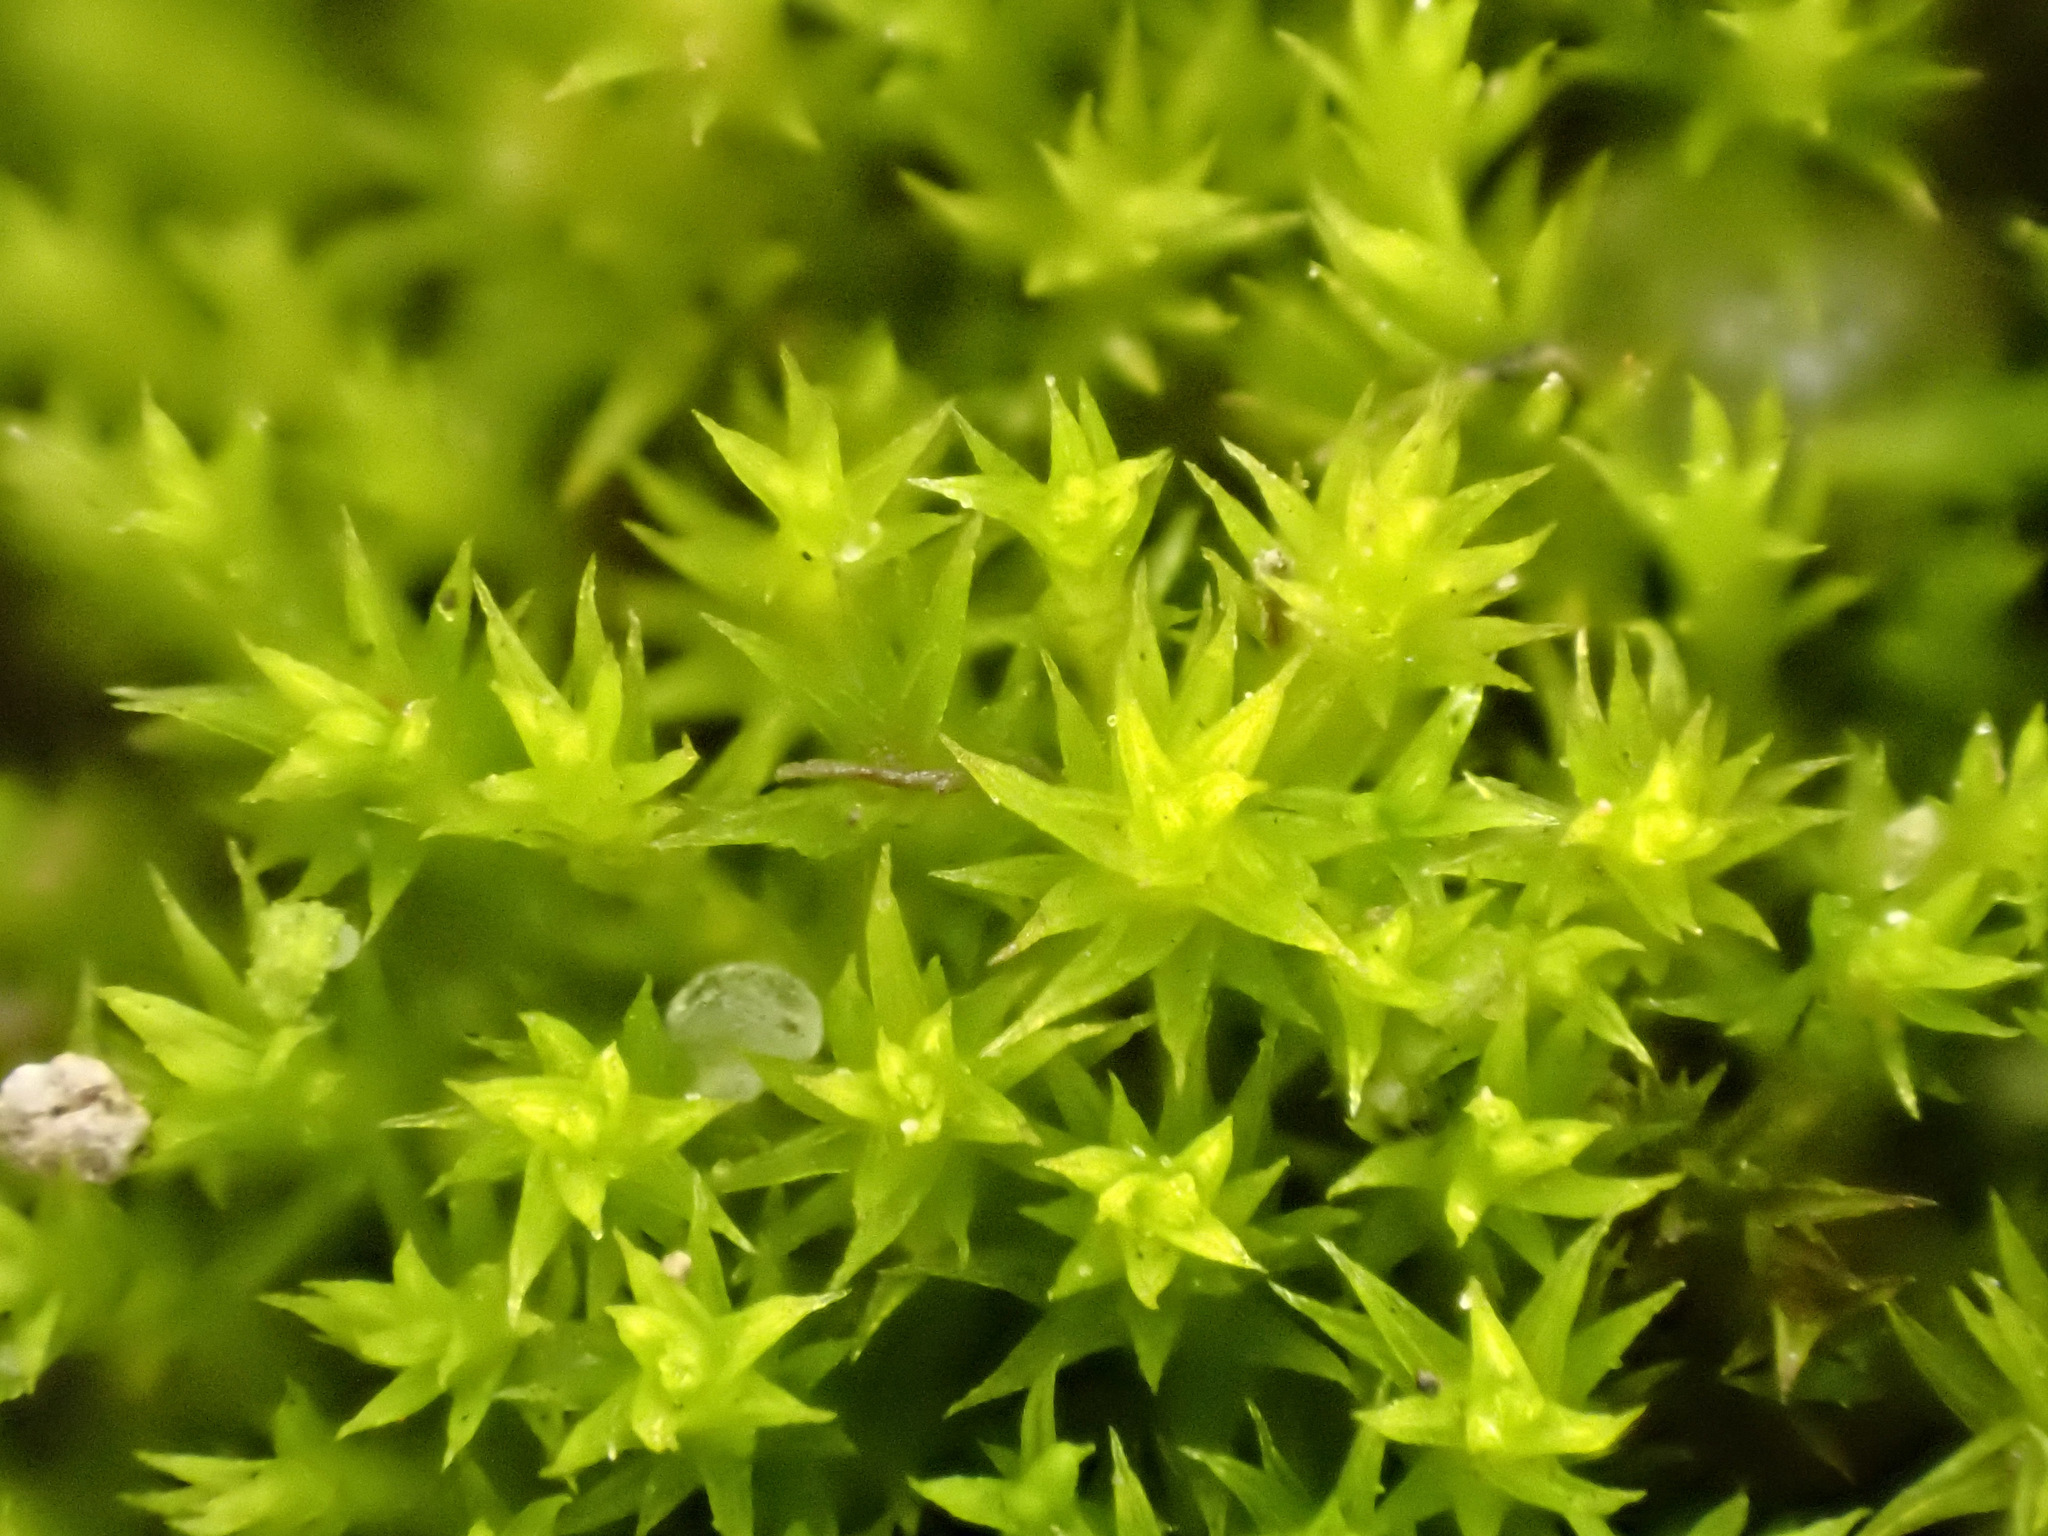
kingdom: Plantae
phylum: Bryophyta
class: Bryopsida
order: Pottiales
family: Pottiaceae
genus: Pseudocrossidium
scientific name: Pseudocrossidium hornschuchianum
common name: Hornschuch's beard-moss
